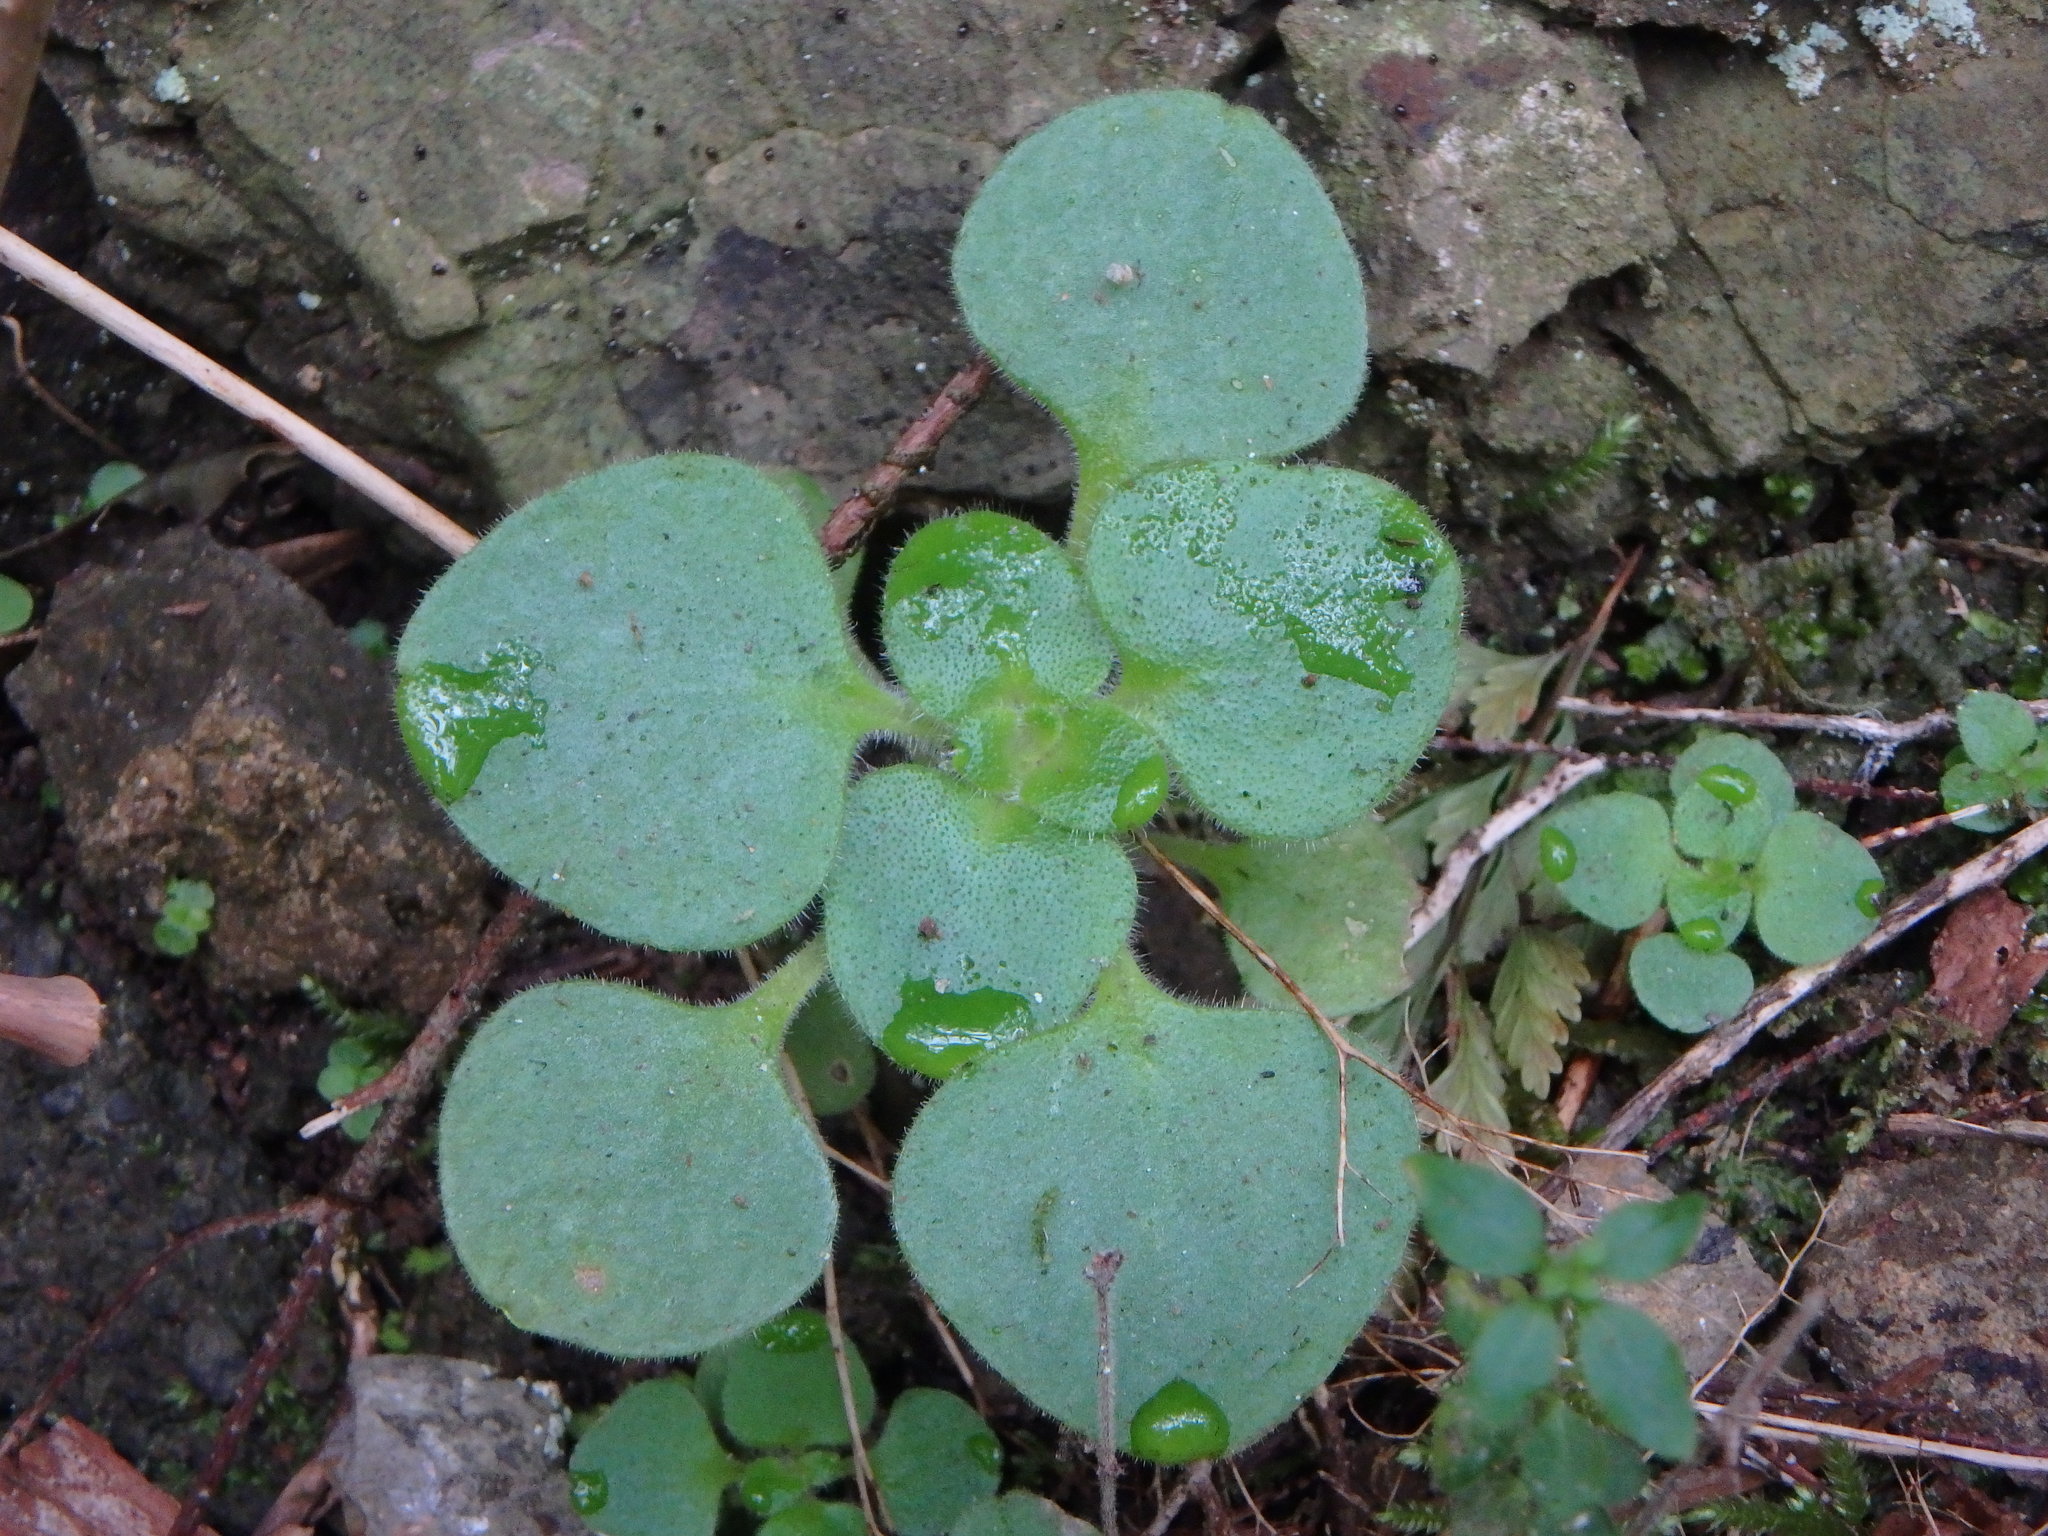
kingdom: Plantae
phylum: Tracheophyta
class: Magnoliopsida
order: Saxifragales
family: Crassulaceae
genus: Aichryson
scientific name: Aichryson laxum
